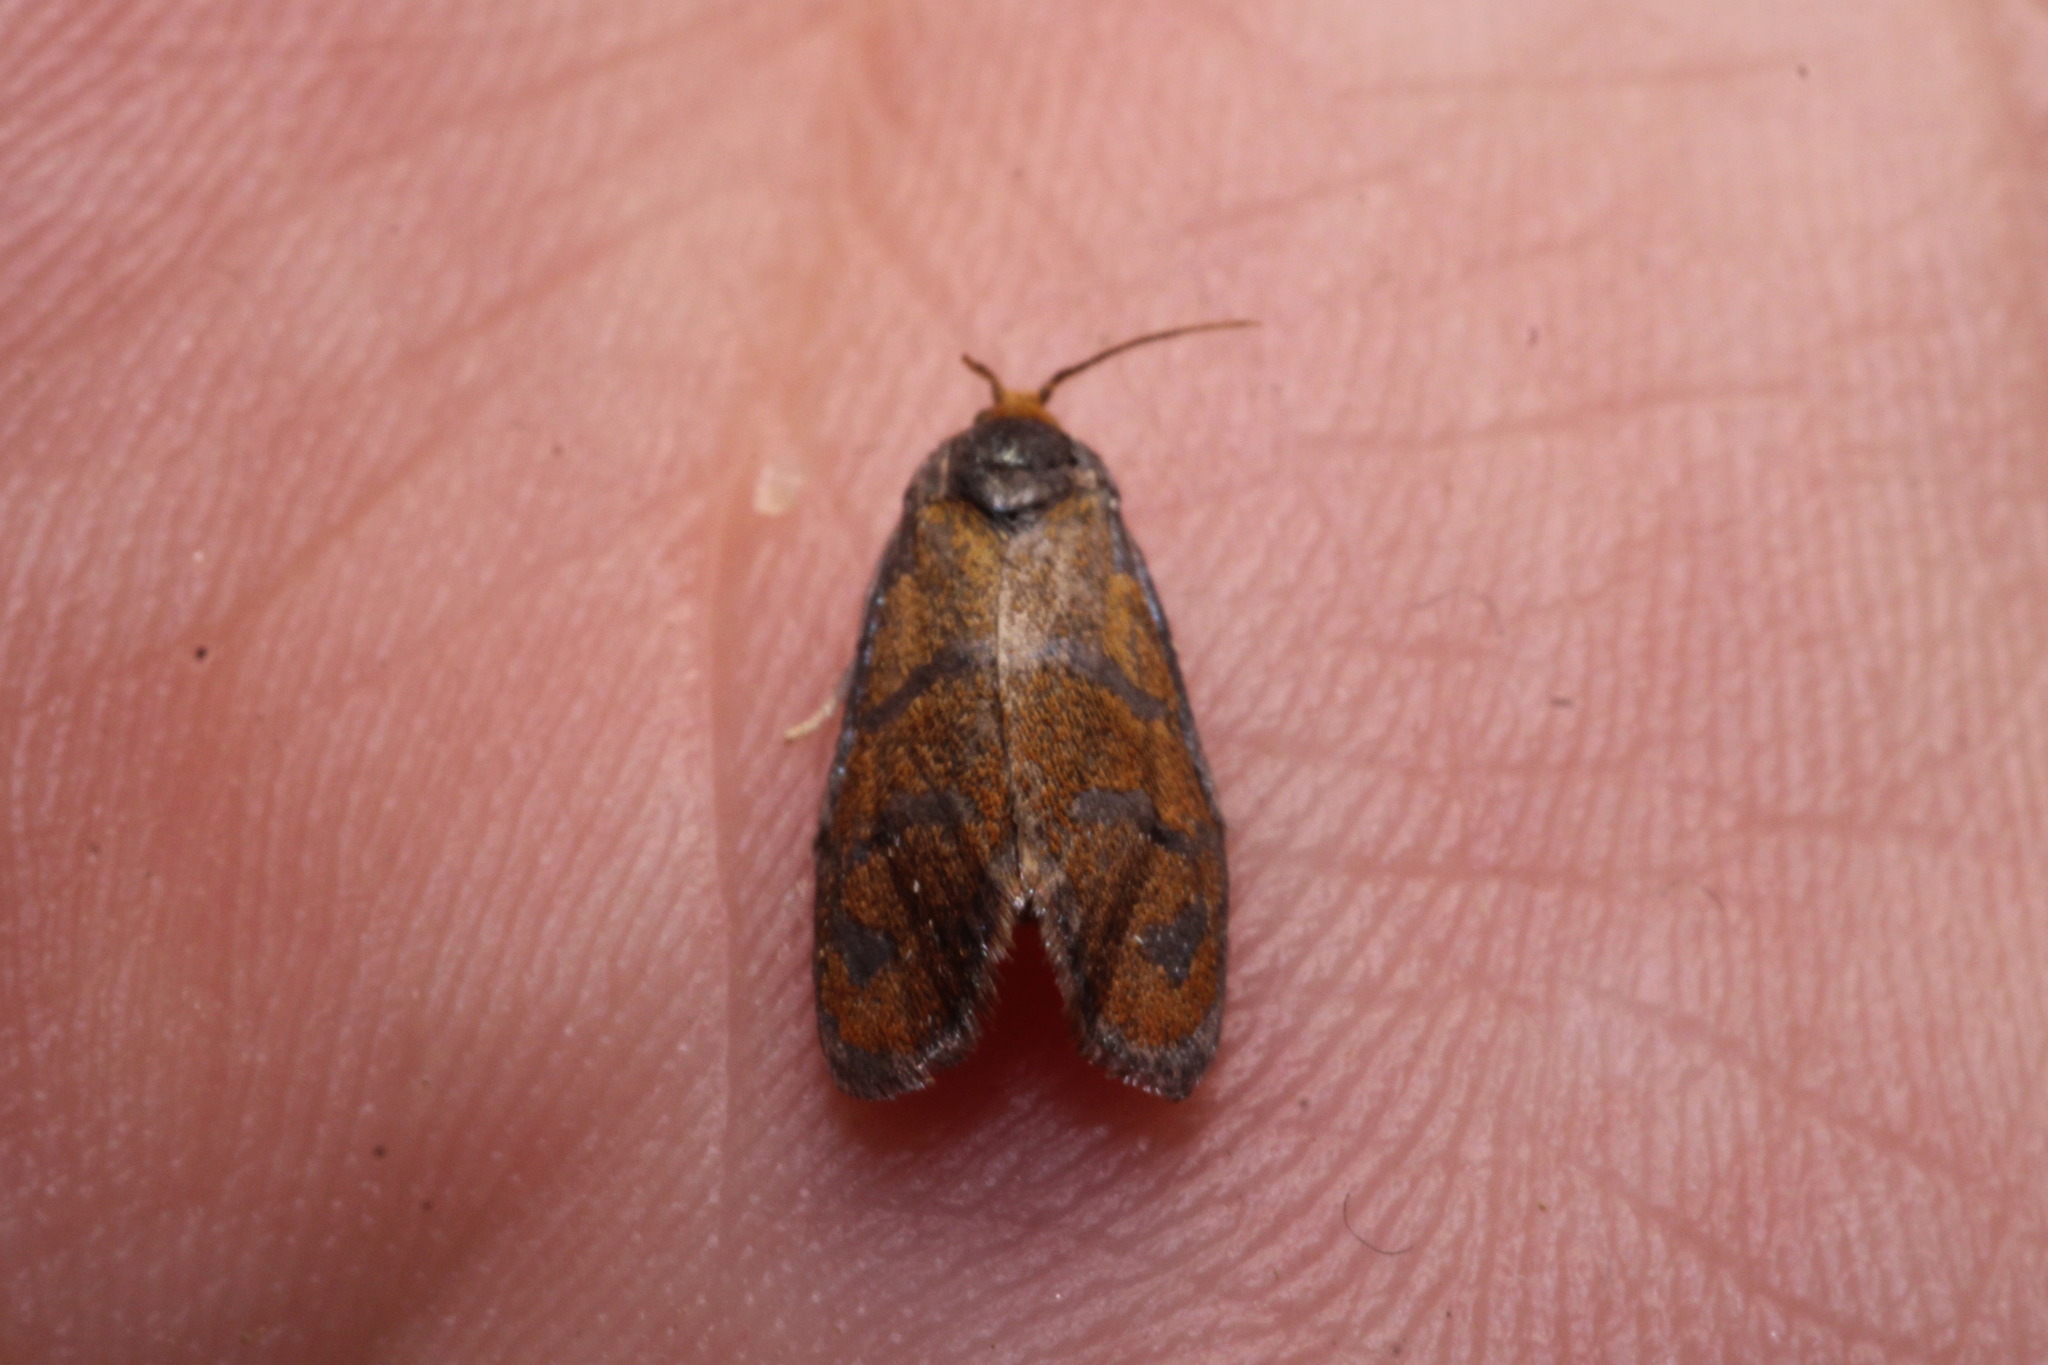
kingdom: Animalia
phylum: Arthropoda
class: Insecta
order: Lepidoptera
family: Tortricidae
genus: Ptycholoma
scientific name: Ptycholoma lecheana
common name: Leches twist moth
